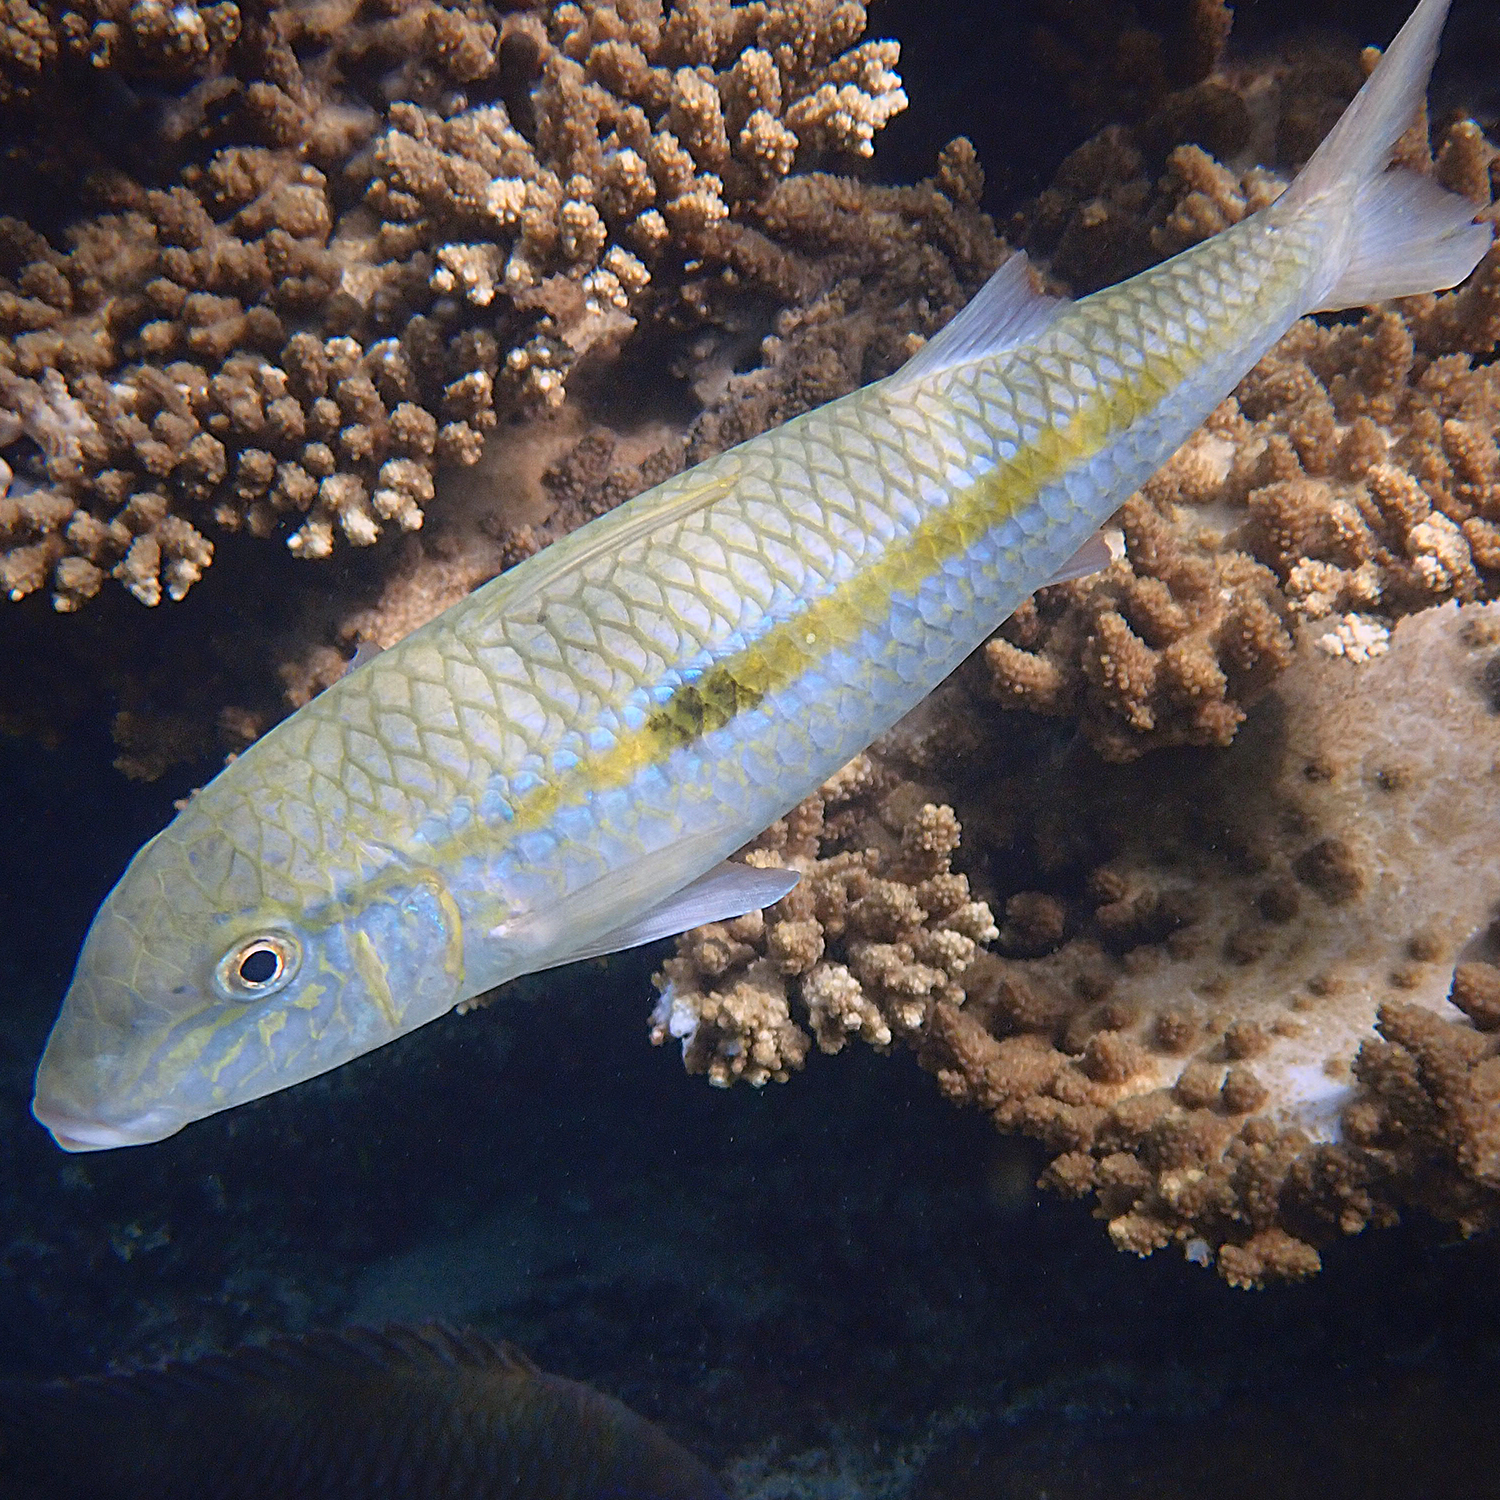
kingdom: Animalia
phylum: Chordata
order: Perciformes
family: Mullidae
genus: Mulloidichthys
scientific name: Mulloidichthys flavolineatus
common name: Yellowstripe goatfish
